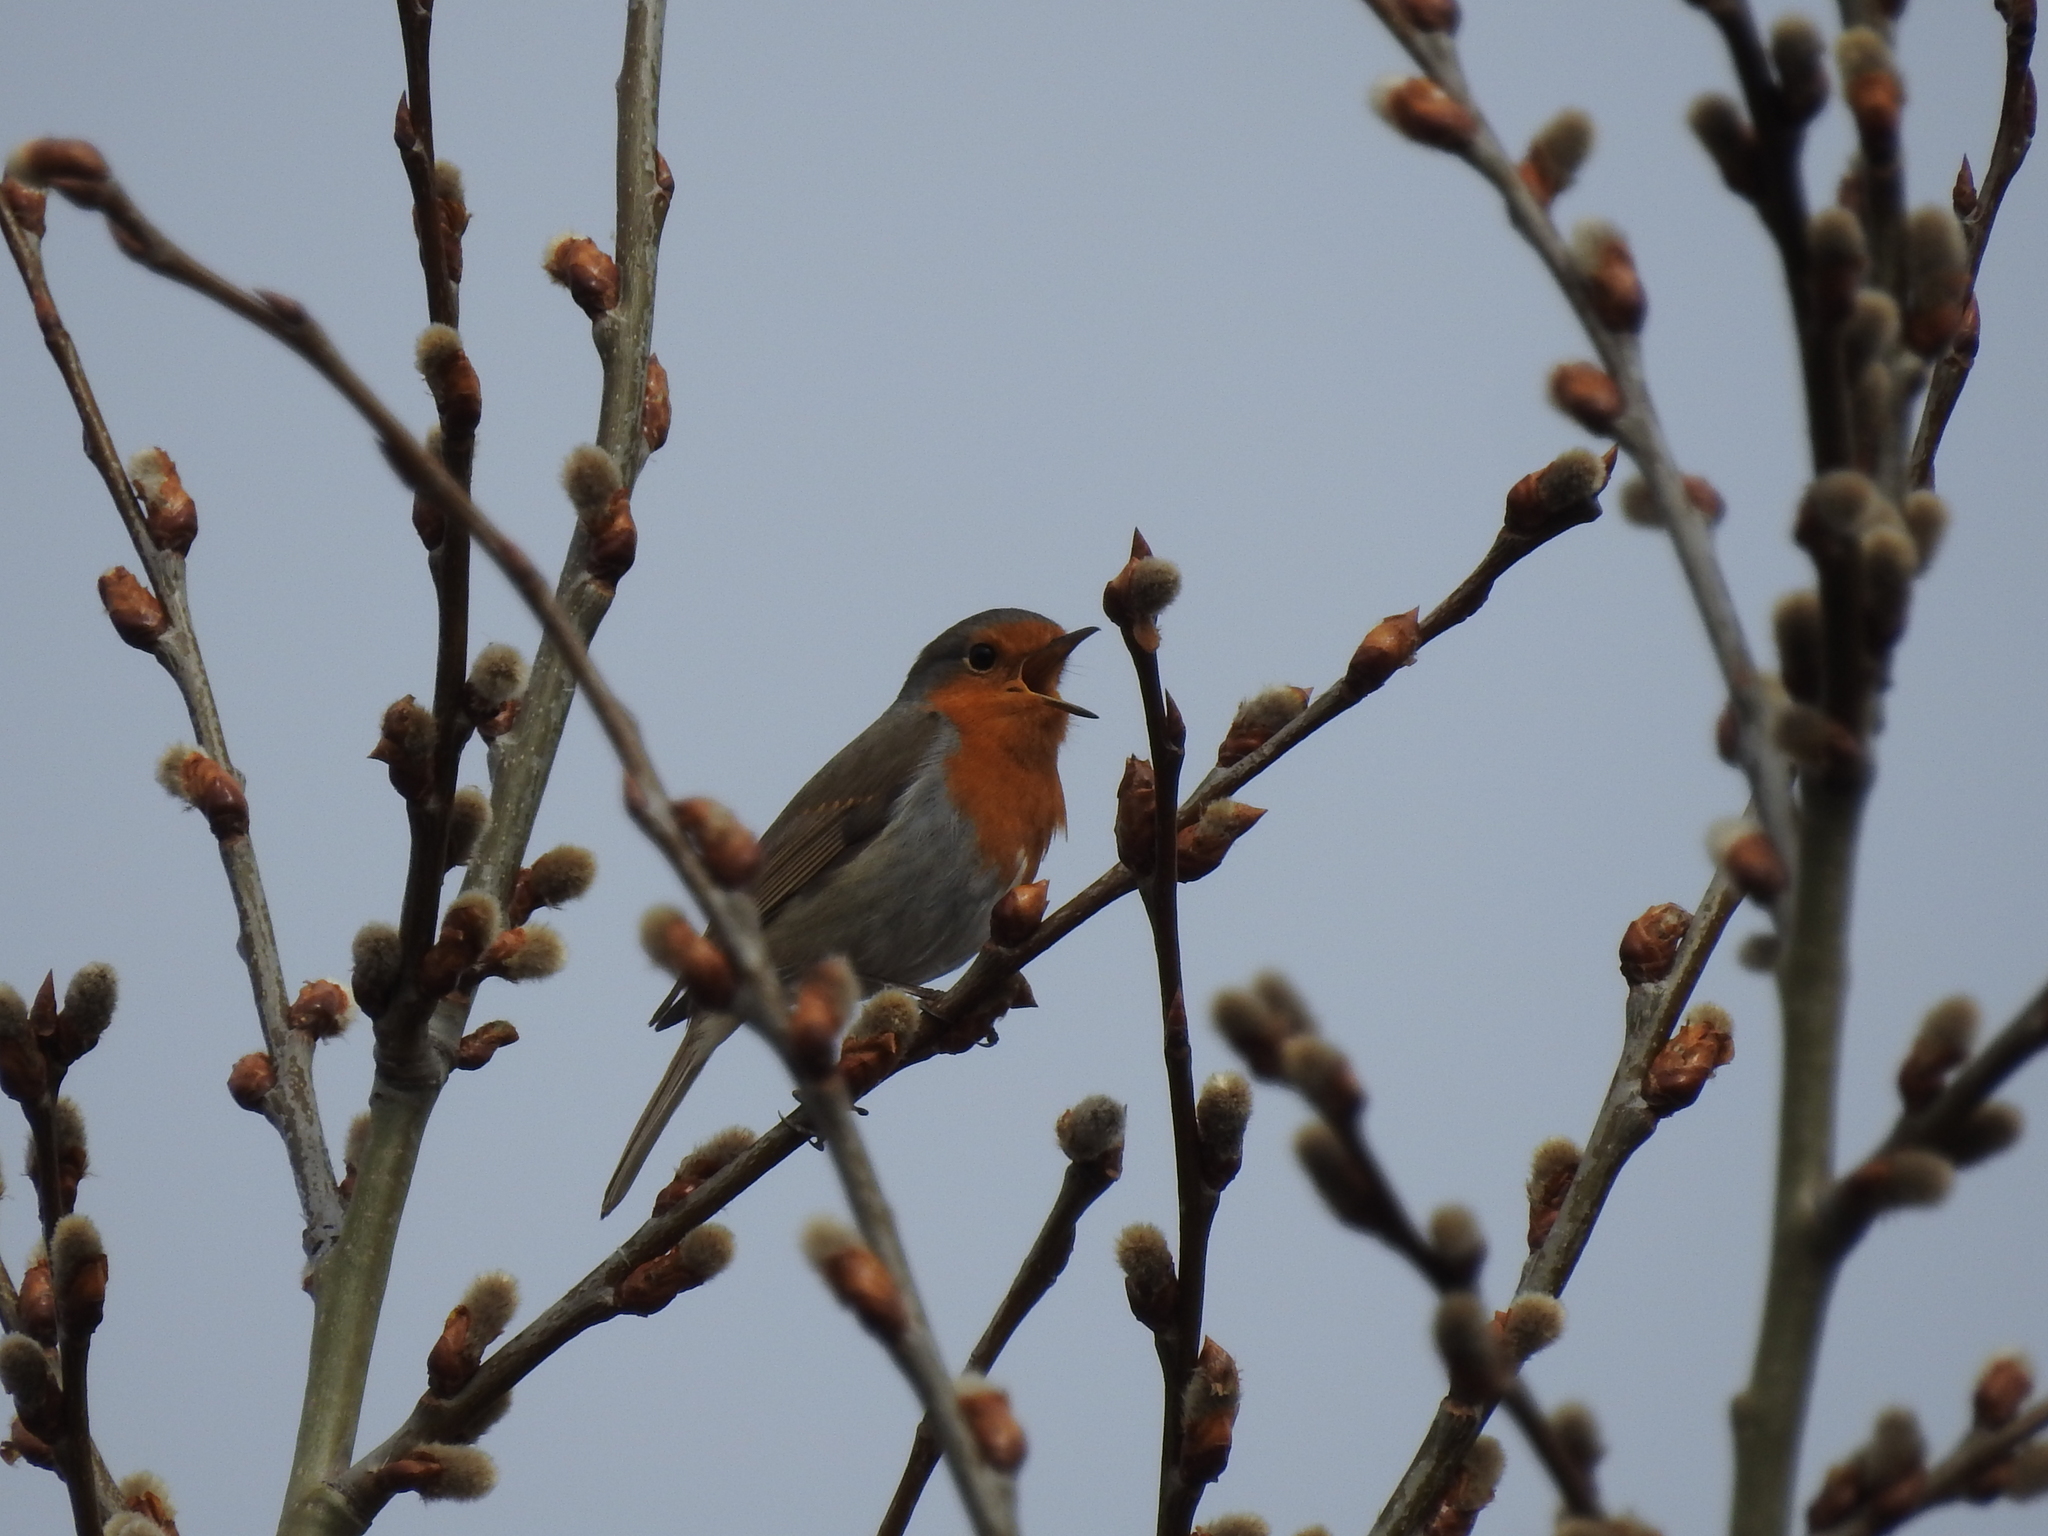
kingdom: Animalia
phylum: Chordata
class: Aves
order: Passeriformes
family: Muscicapidae
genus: Erithacus
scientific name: Erithacus rubecula
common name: European robin
